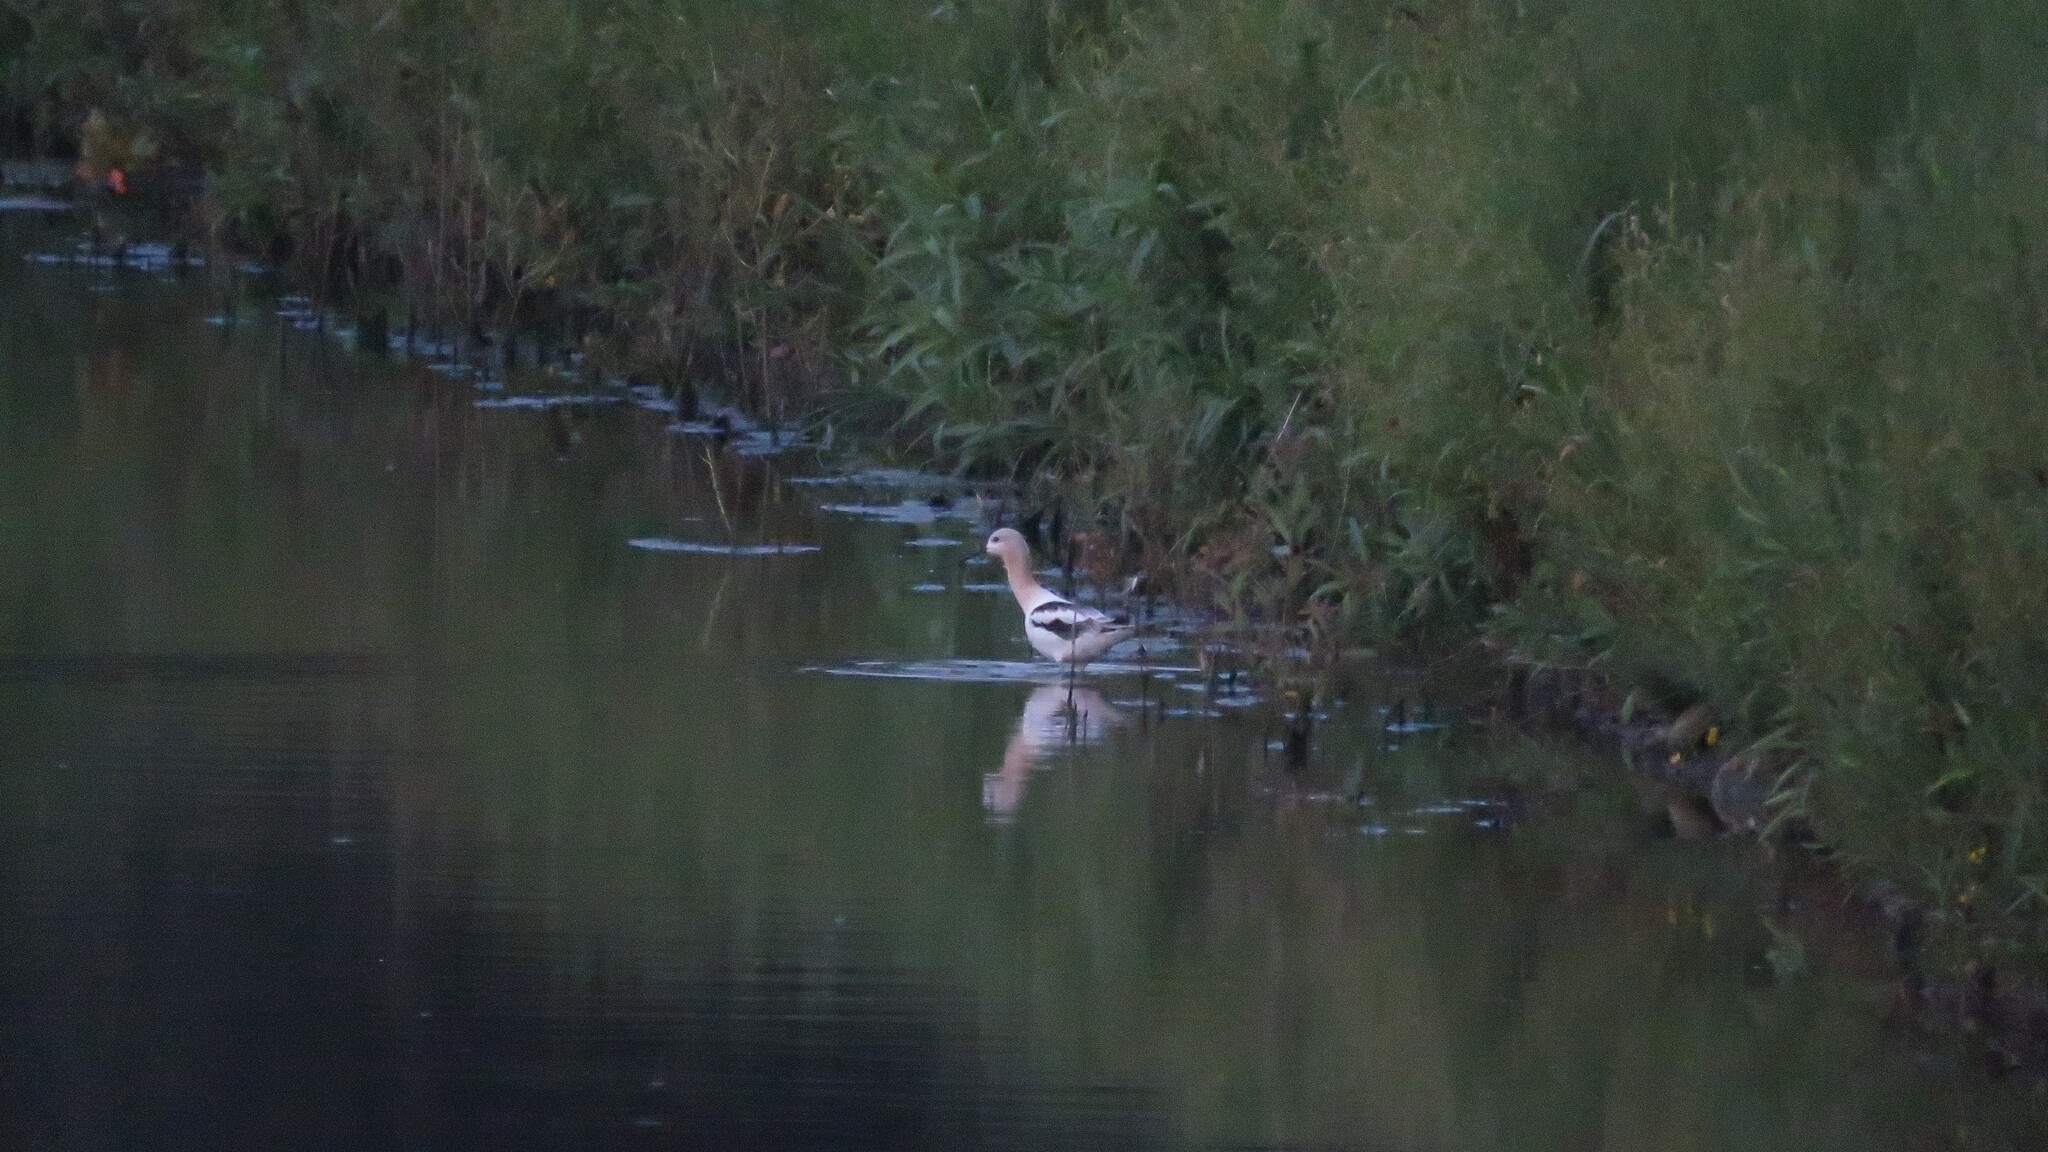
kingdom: Animalia
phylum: Chordata
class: Aves
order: Charadriiformes
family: Recurvirostridae
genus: Recurvirostra
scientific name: Recurvirostra americana
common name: American avocet
